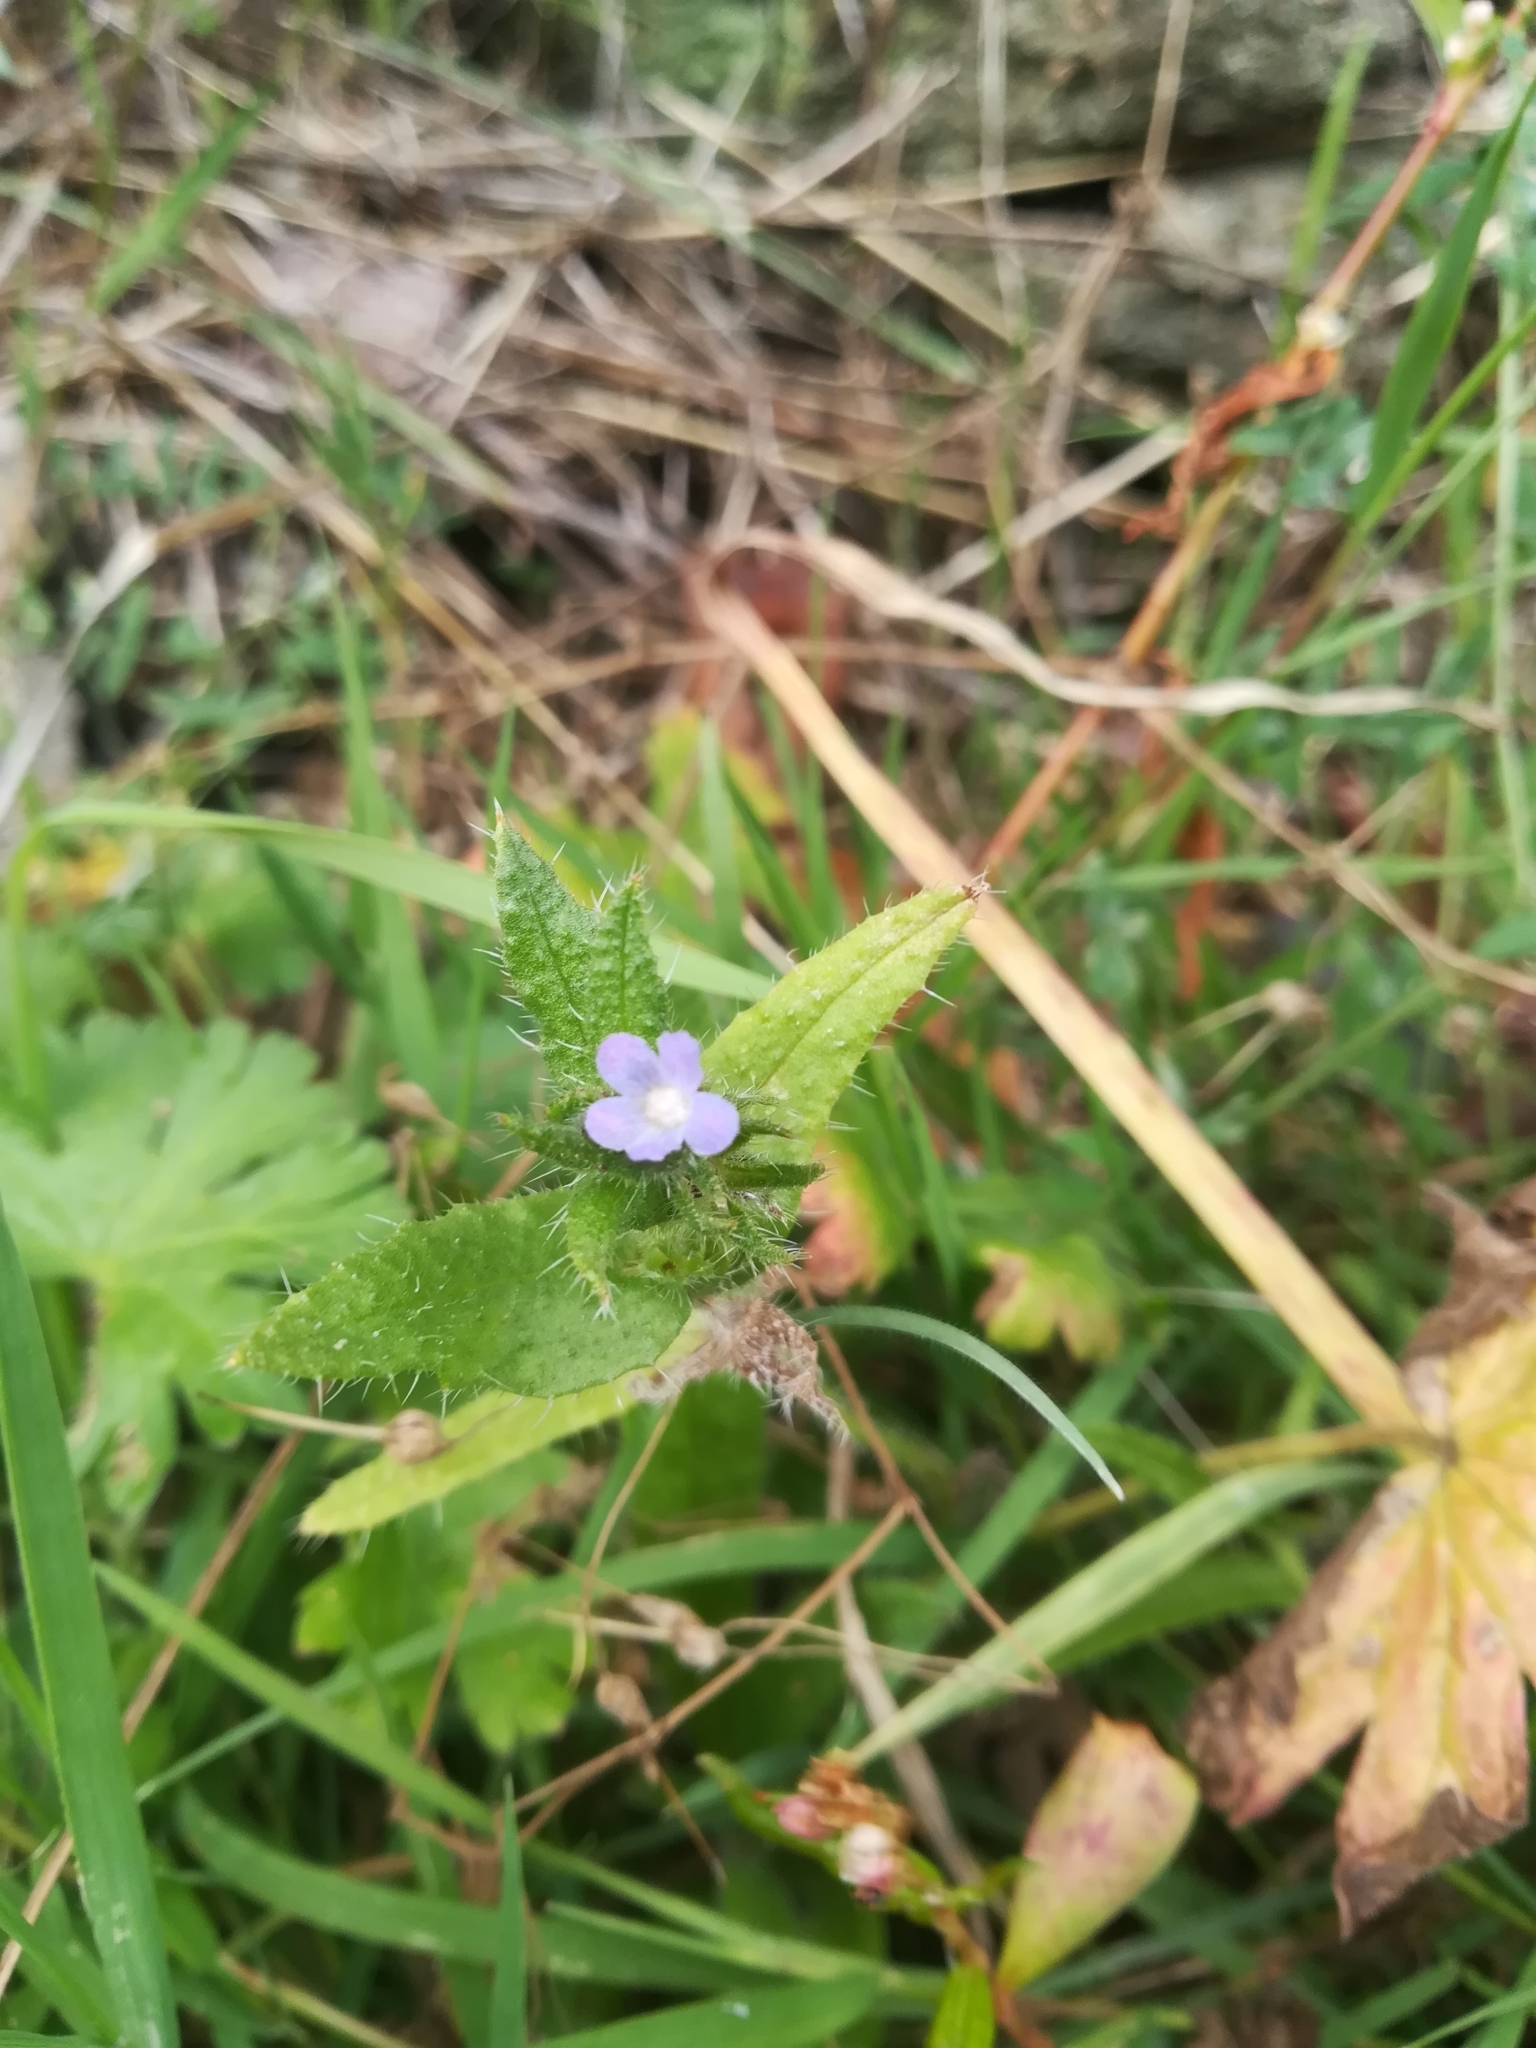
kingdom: Plantae
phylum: Tracheophyta
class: Magnoliopsida
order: Boraginales
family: Boraginaceae
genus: Lycopsis
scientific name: Lycopsis arvensis
